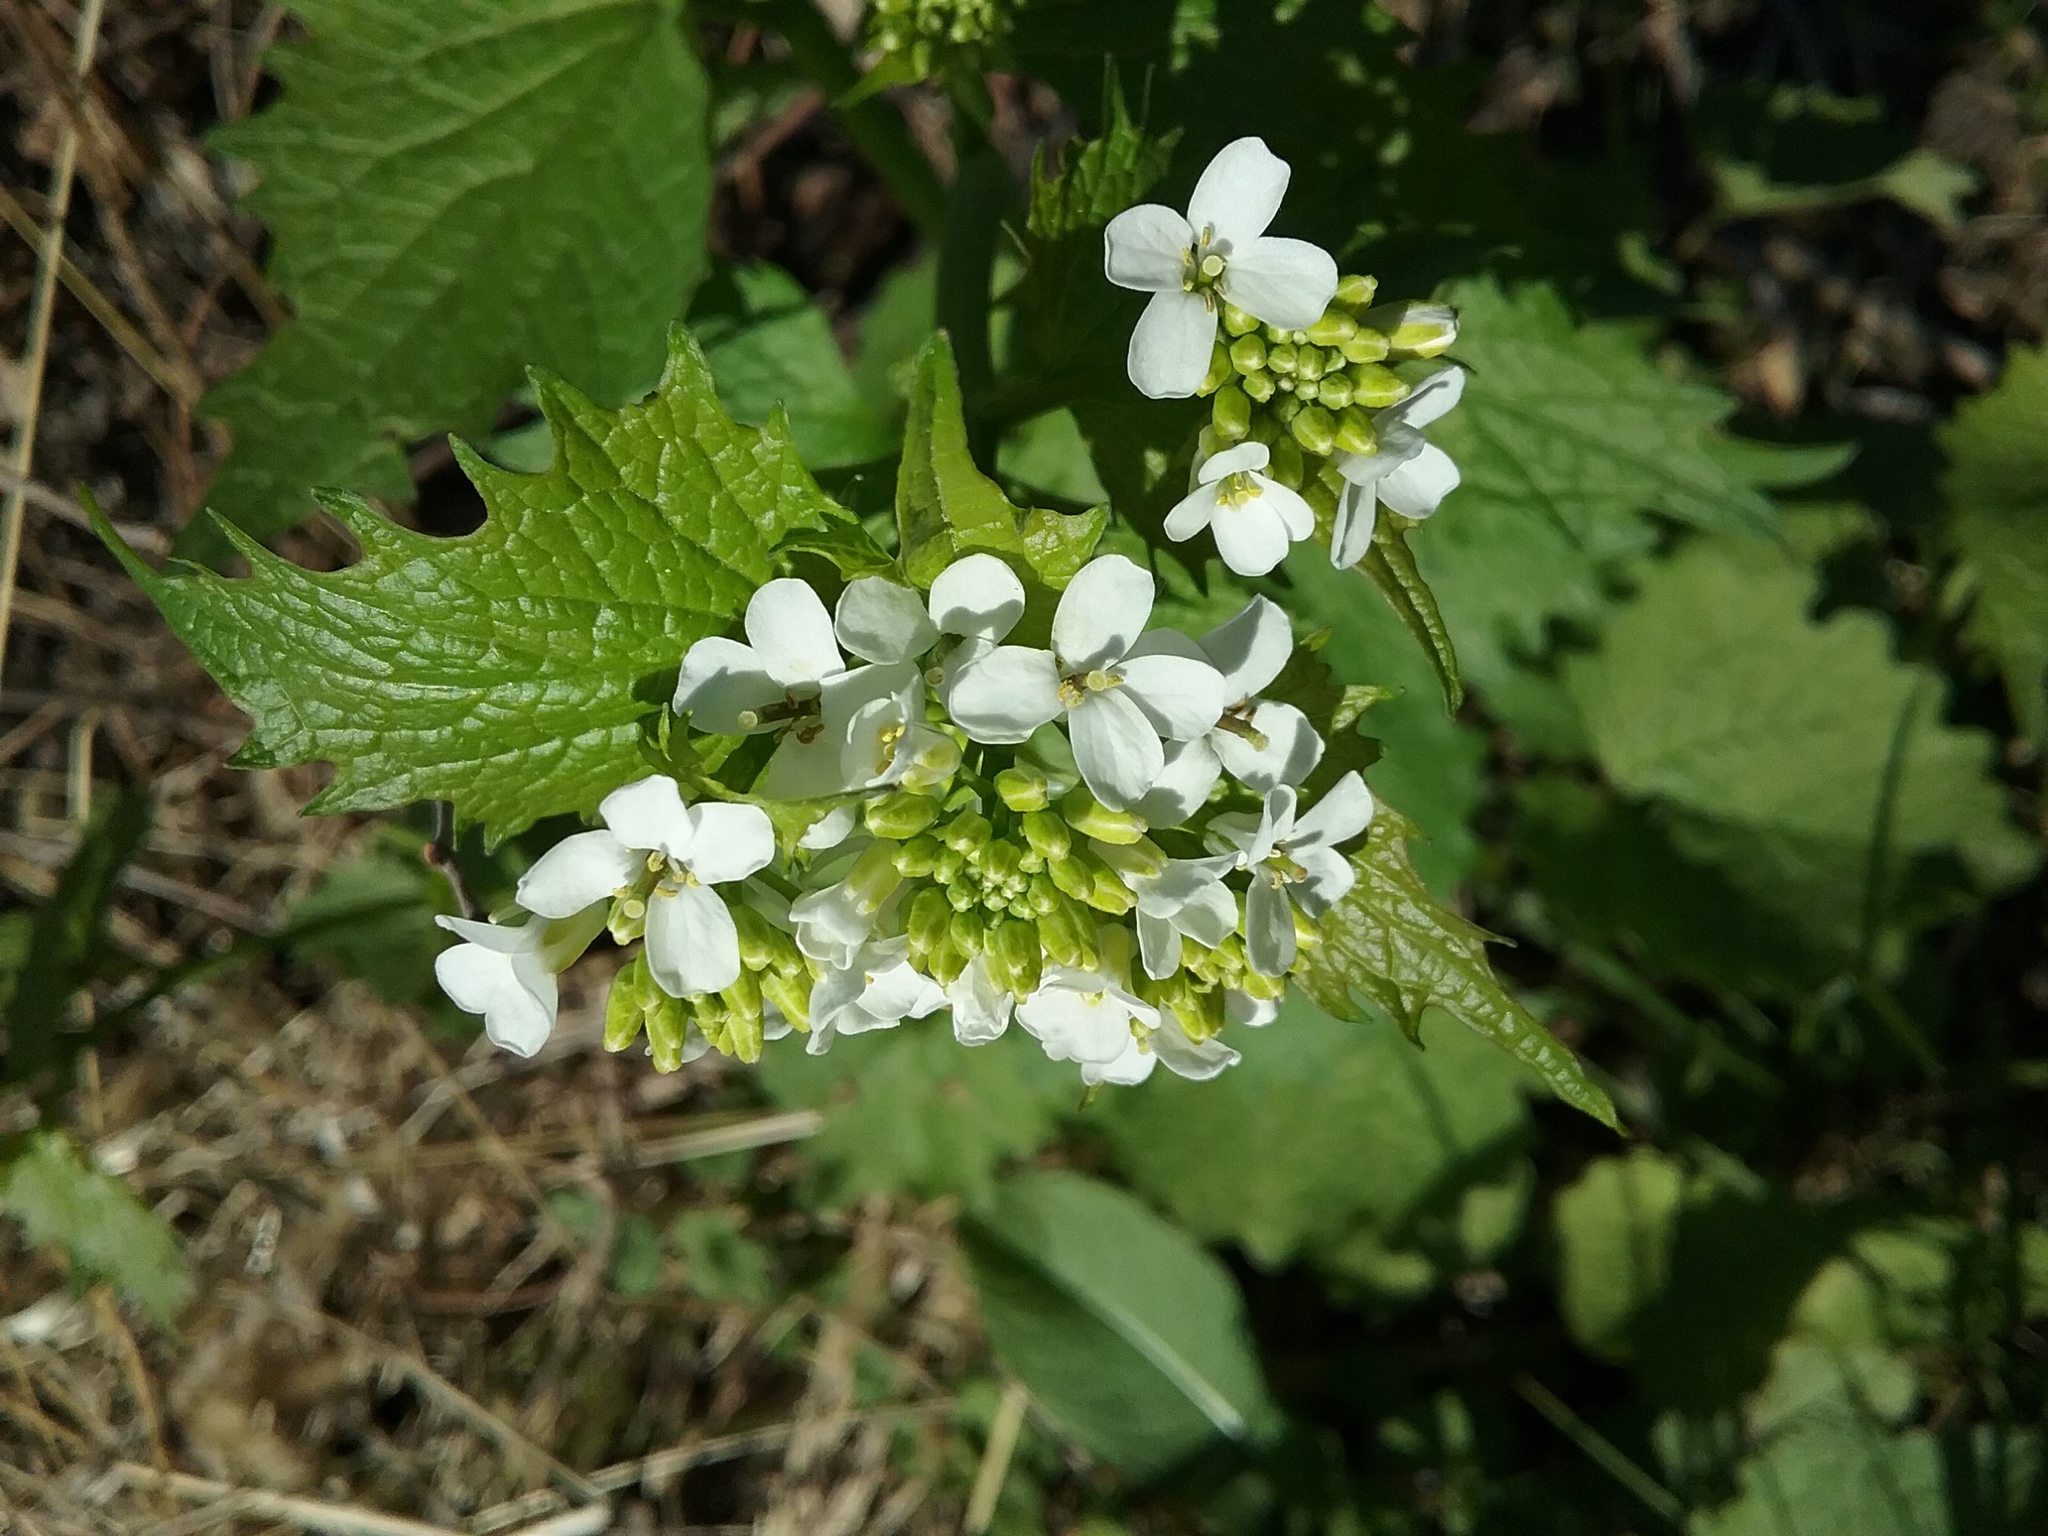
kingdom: Plantae
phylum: Tracheophyta
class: Magnoliopsida
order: Brassicales
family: Brassicaceae
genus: Alliaria
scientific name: Alliaria petiolata
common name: Garlic mustard
